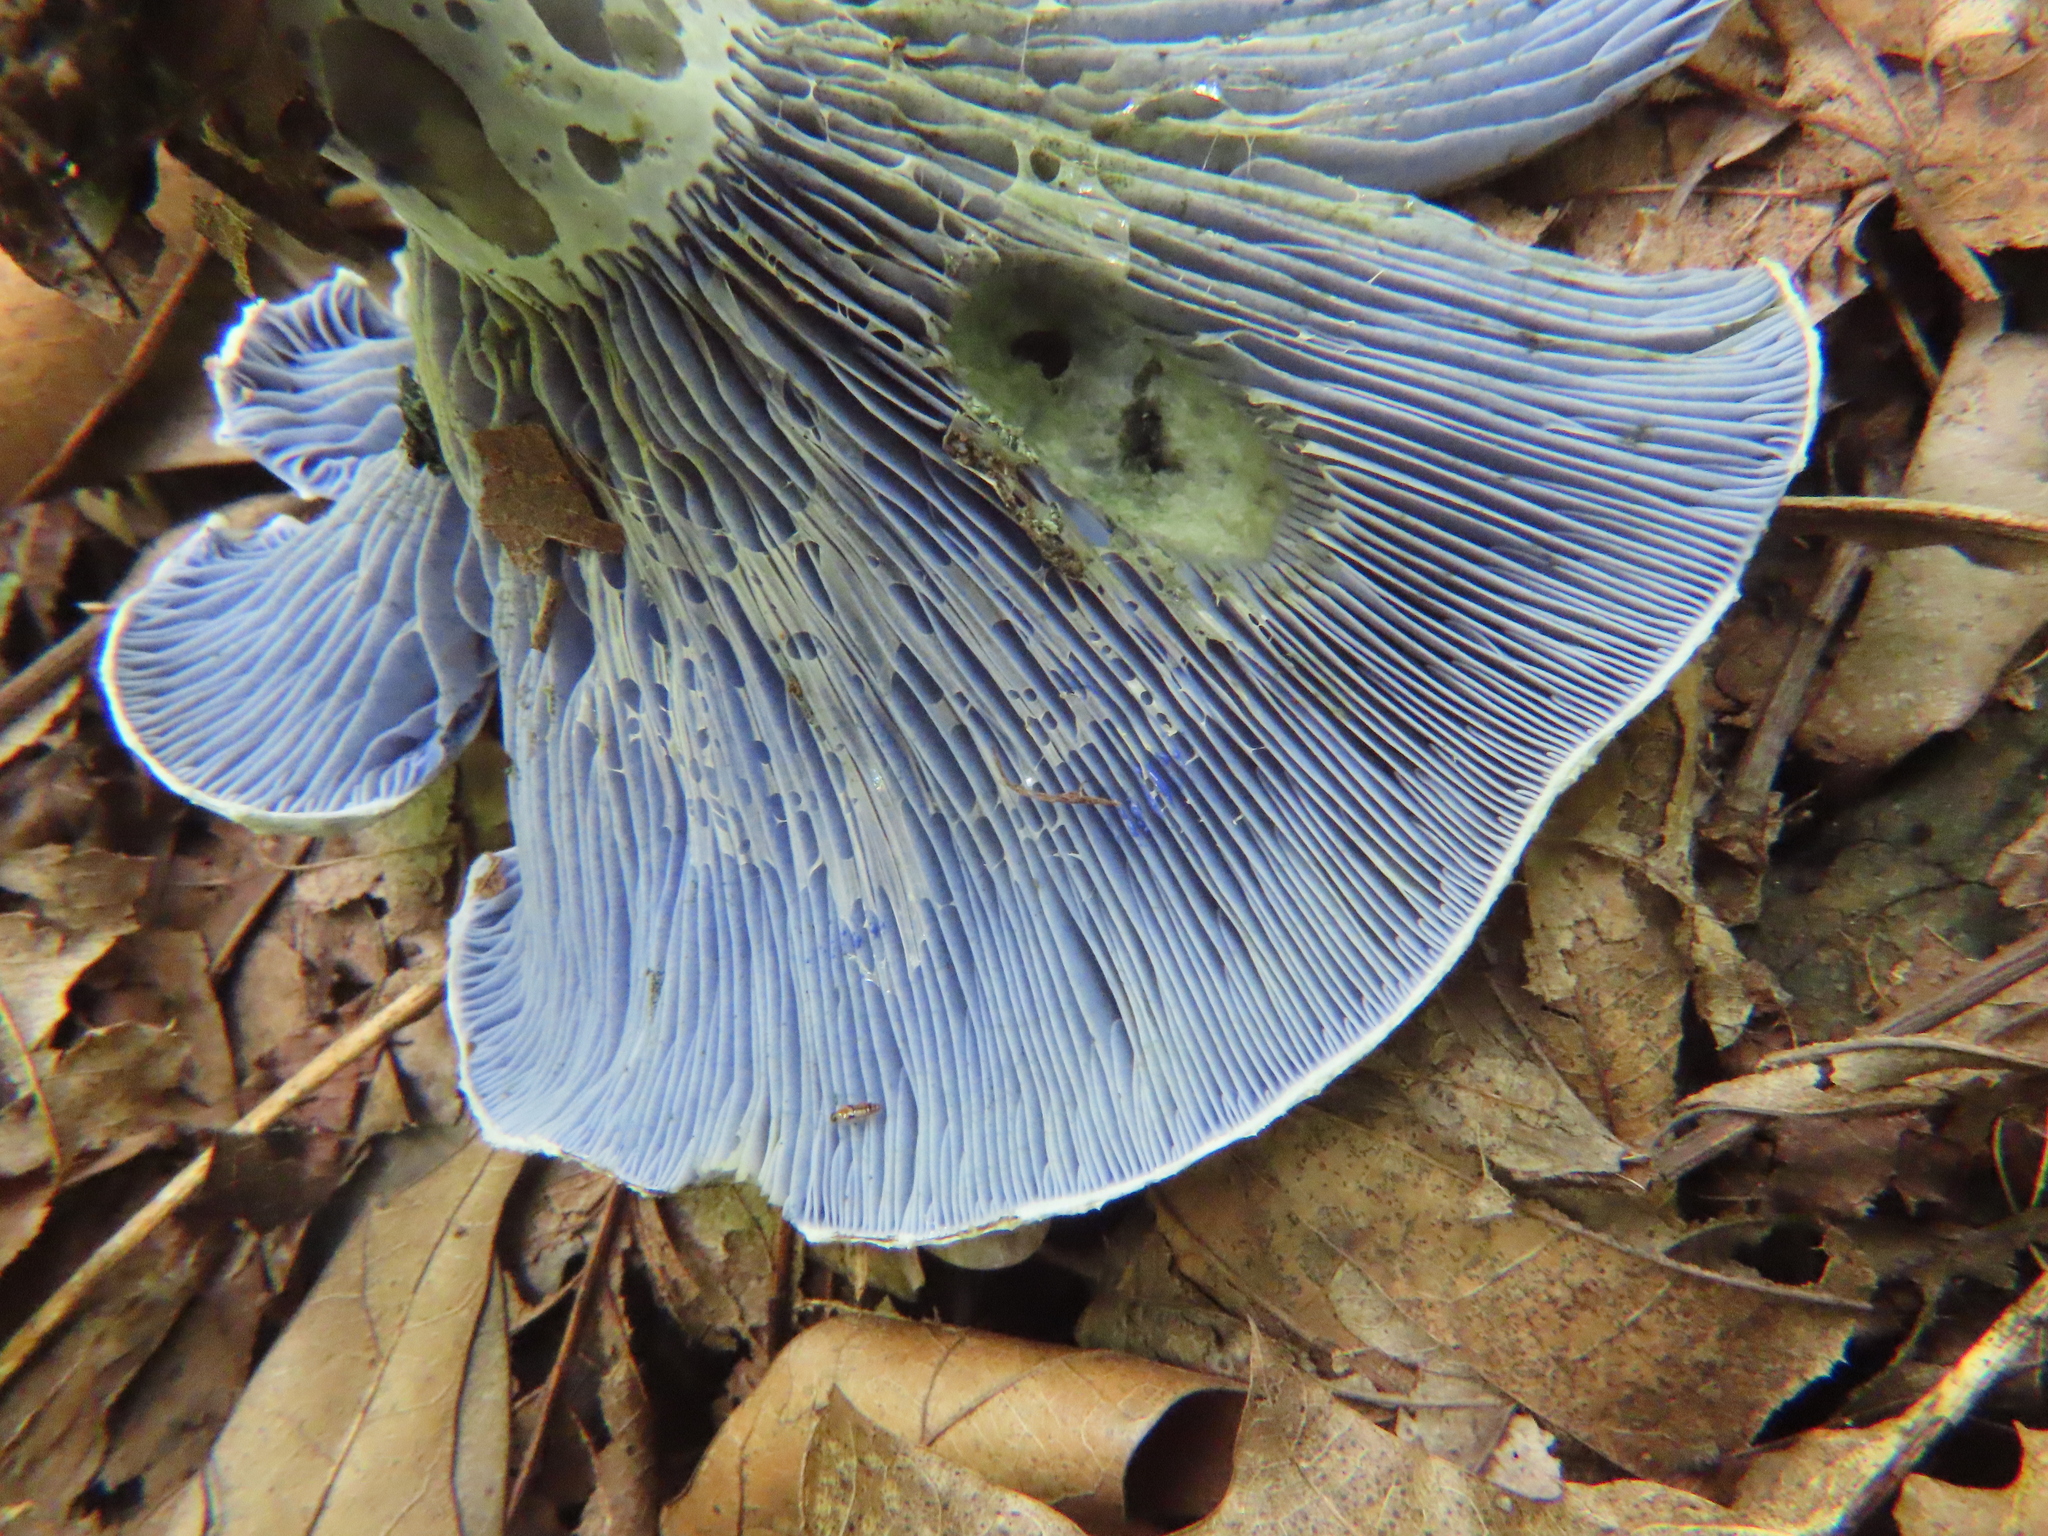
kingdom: Fungi
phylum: Basidiomycota
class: Agaricomycetes
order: Russulales
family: Russulaceae
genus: Lactarius
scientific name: Lactarius indigo
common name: Indigo milk cap
